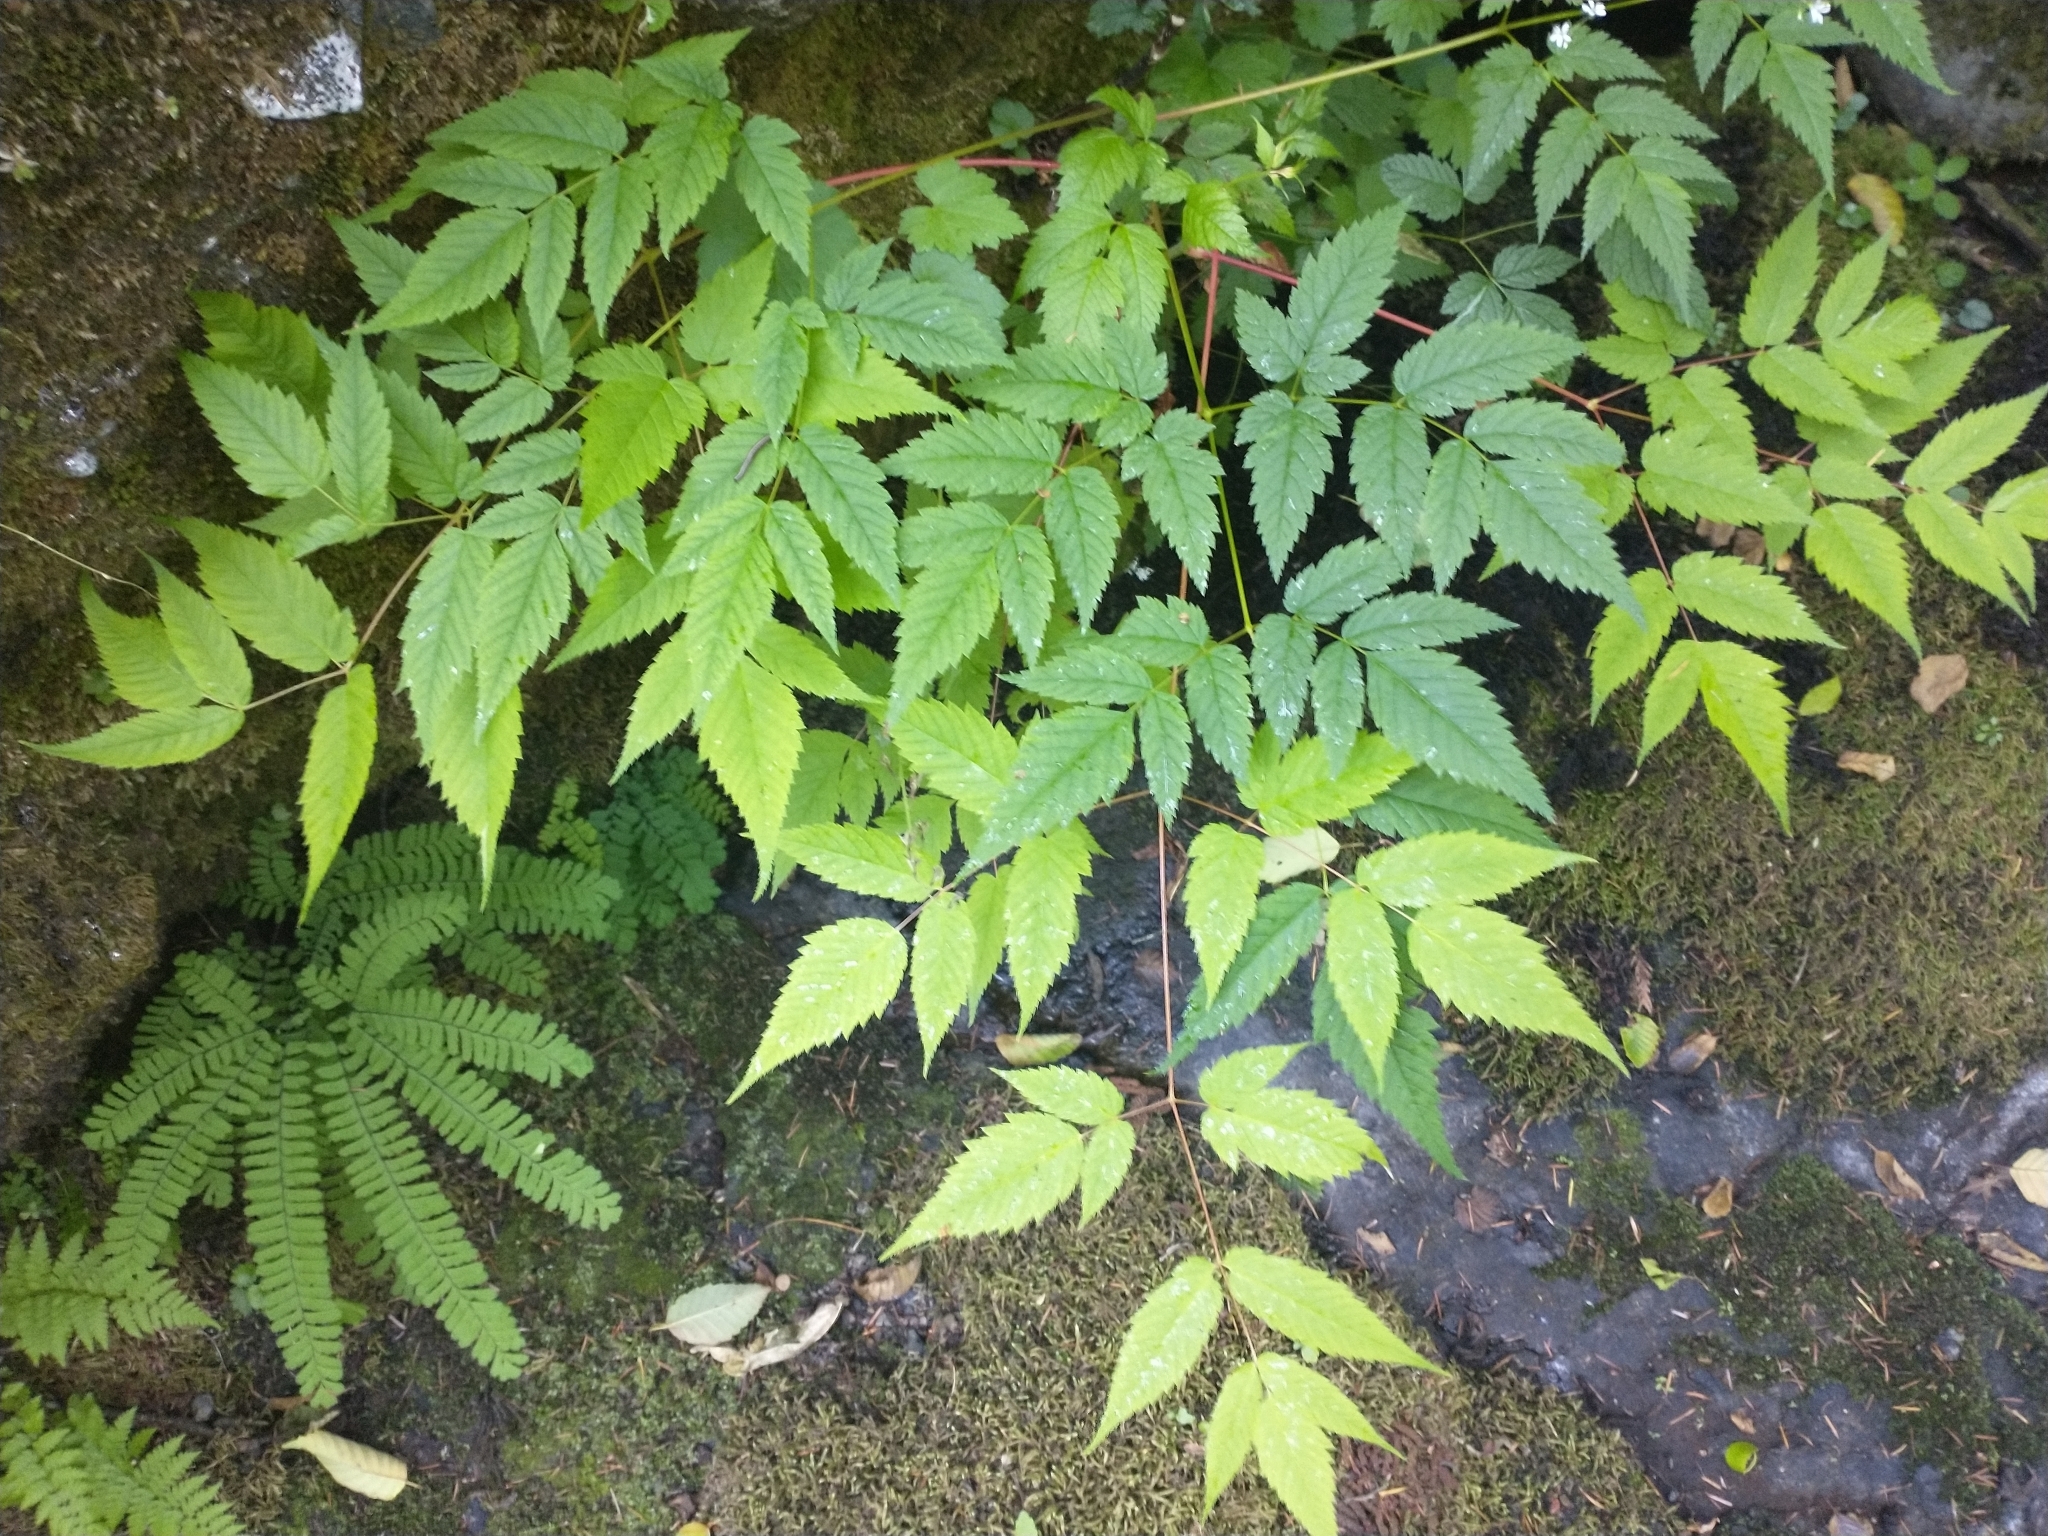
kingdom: Plantae
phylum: Tracheophyta
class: Magnoliopsida
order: Rosales
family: Rosaceae
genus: Aruncus
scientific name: Aruncus dioicus
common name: Buck's-beard
